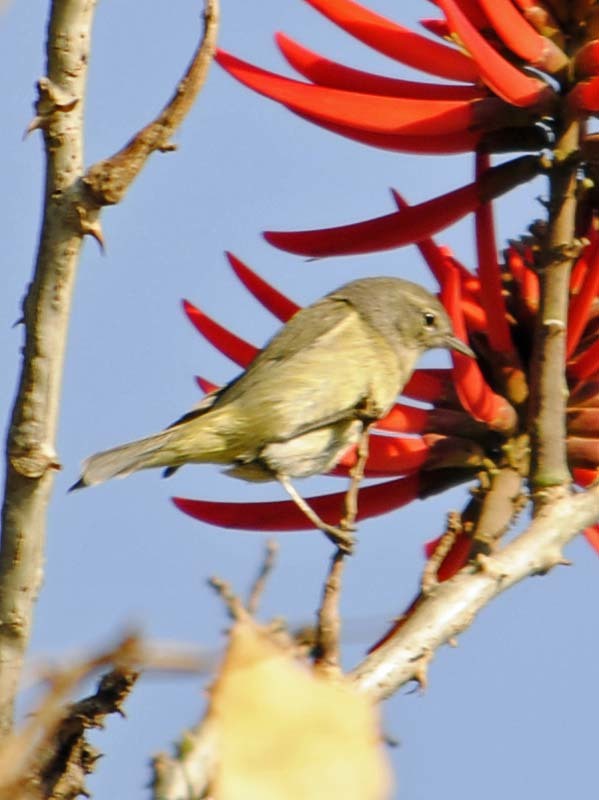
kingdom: Animalia
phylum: Chordata
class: Aves
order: Passeriformes
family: Parulidae
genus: Leiothlypis
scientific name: Leiothlypis celata
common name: Orange-crowned warbler
